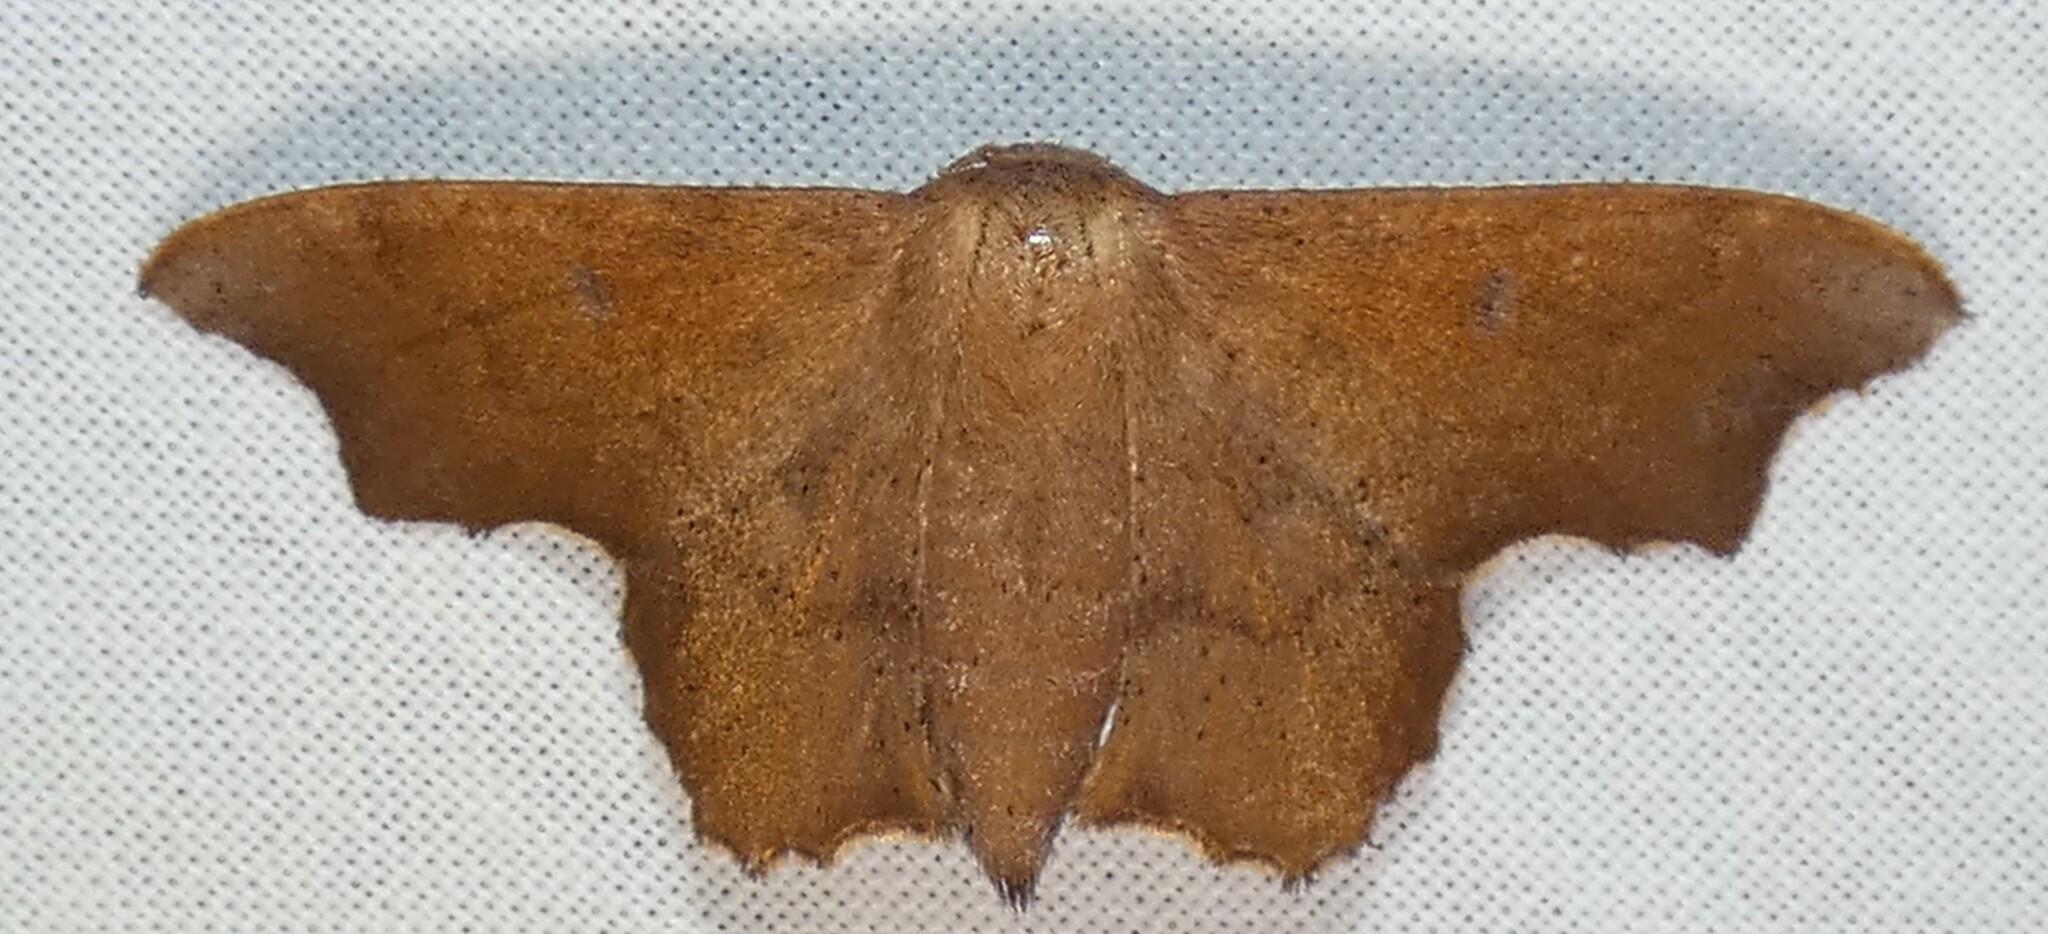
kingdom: Animalia
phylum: Arthropoda
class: Insecta
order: Lepidoptera
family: Mimallonidae
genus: Lacosoma
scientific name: Lacosoma chiridota
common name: Scalloped sack-bearer moth
